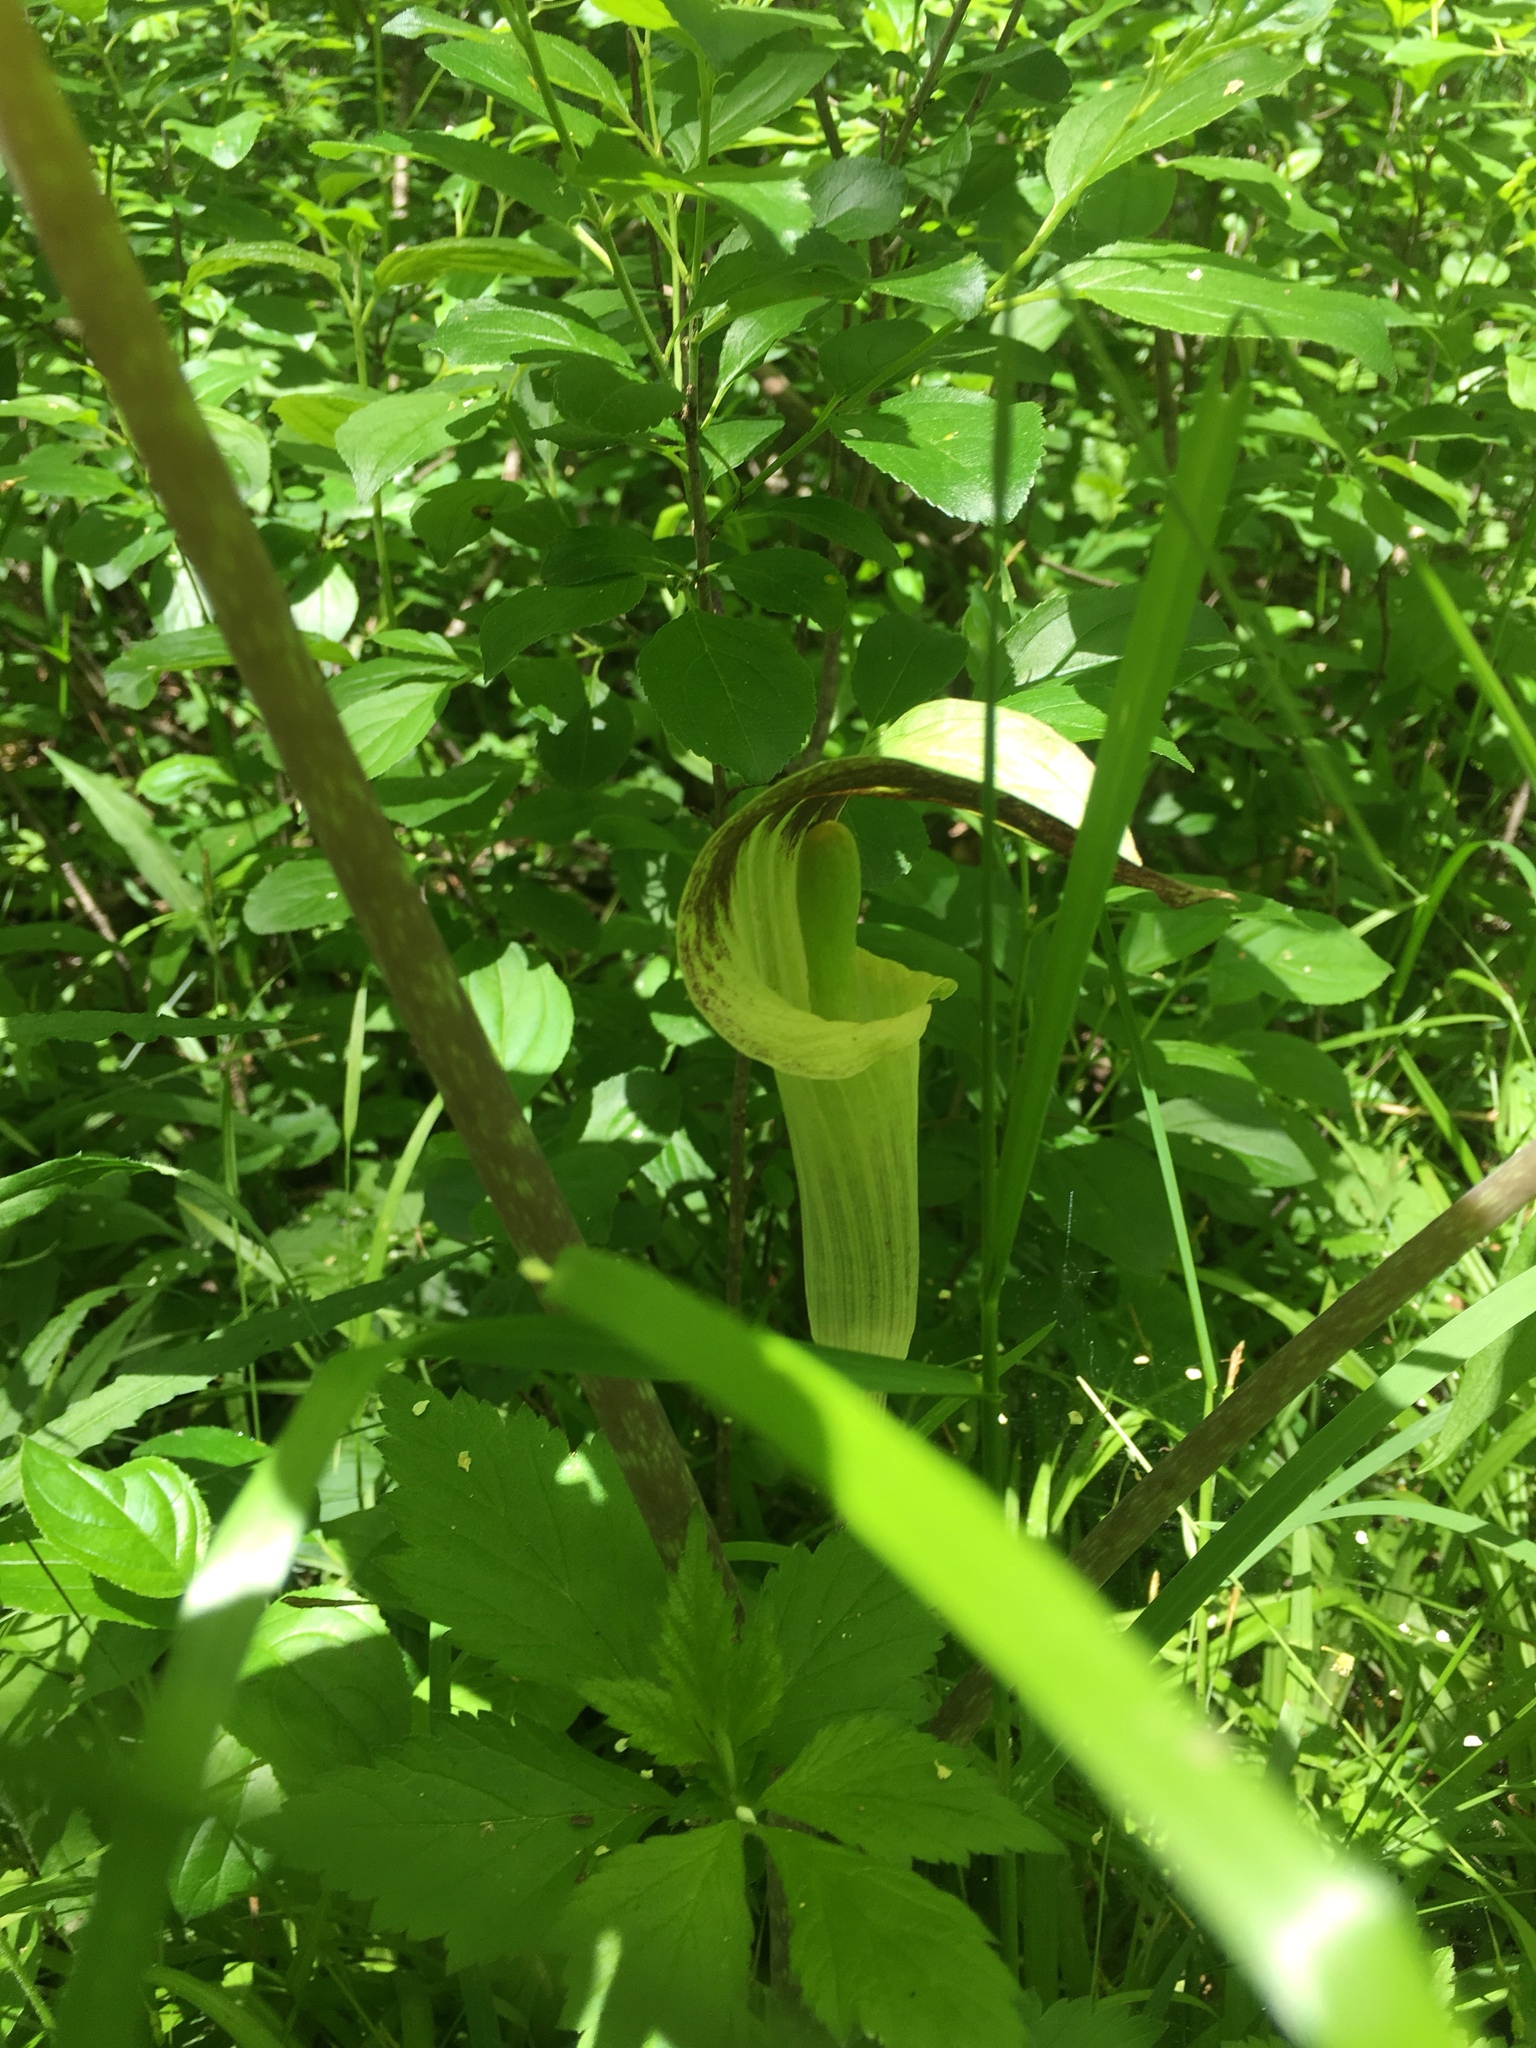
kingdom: Plantae
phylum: Tracheophyta
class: Liliopsida
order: Alismatales
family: Araceae
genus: Arisaema
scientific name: Arisaema triphyllum
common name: Jack-in-the-pulpit
